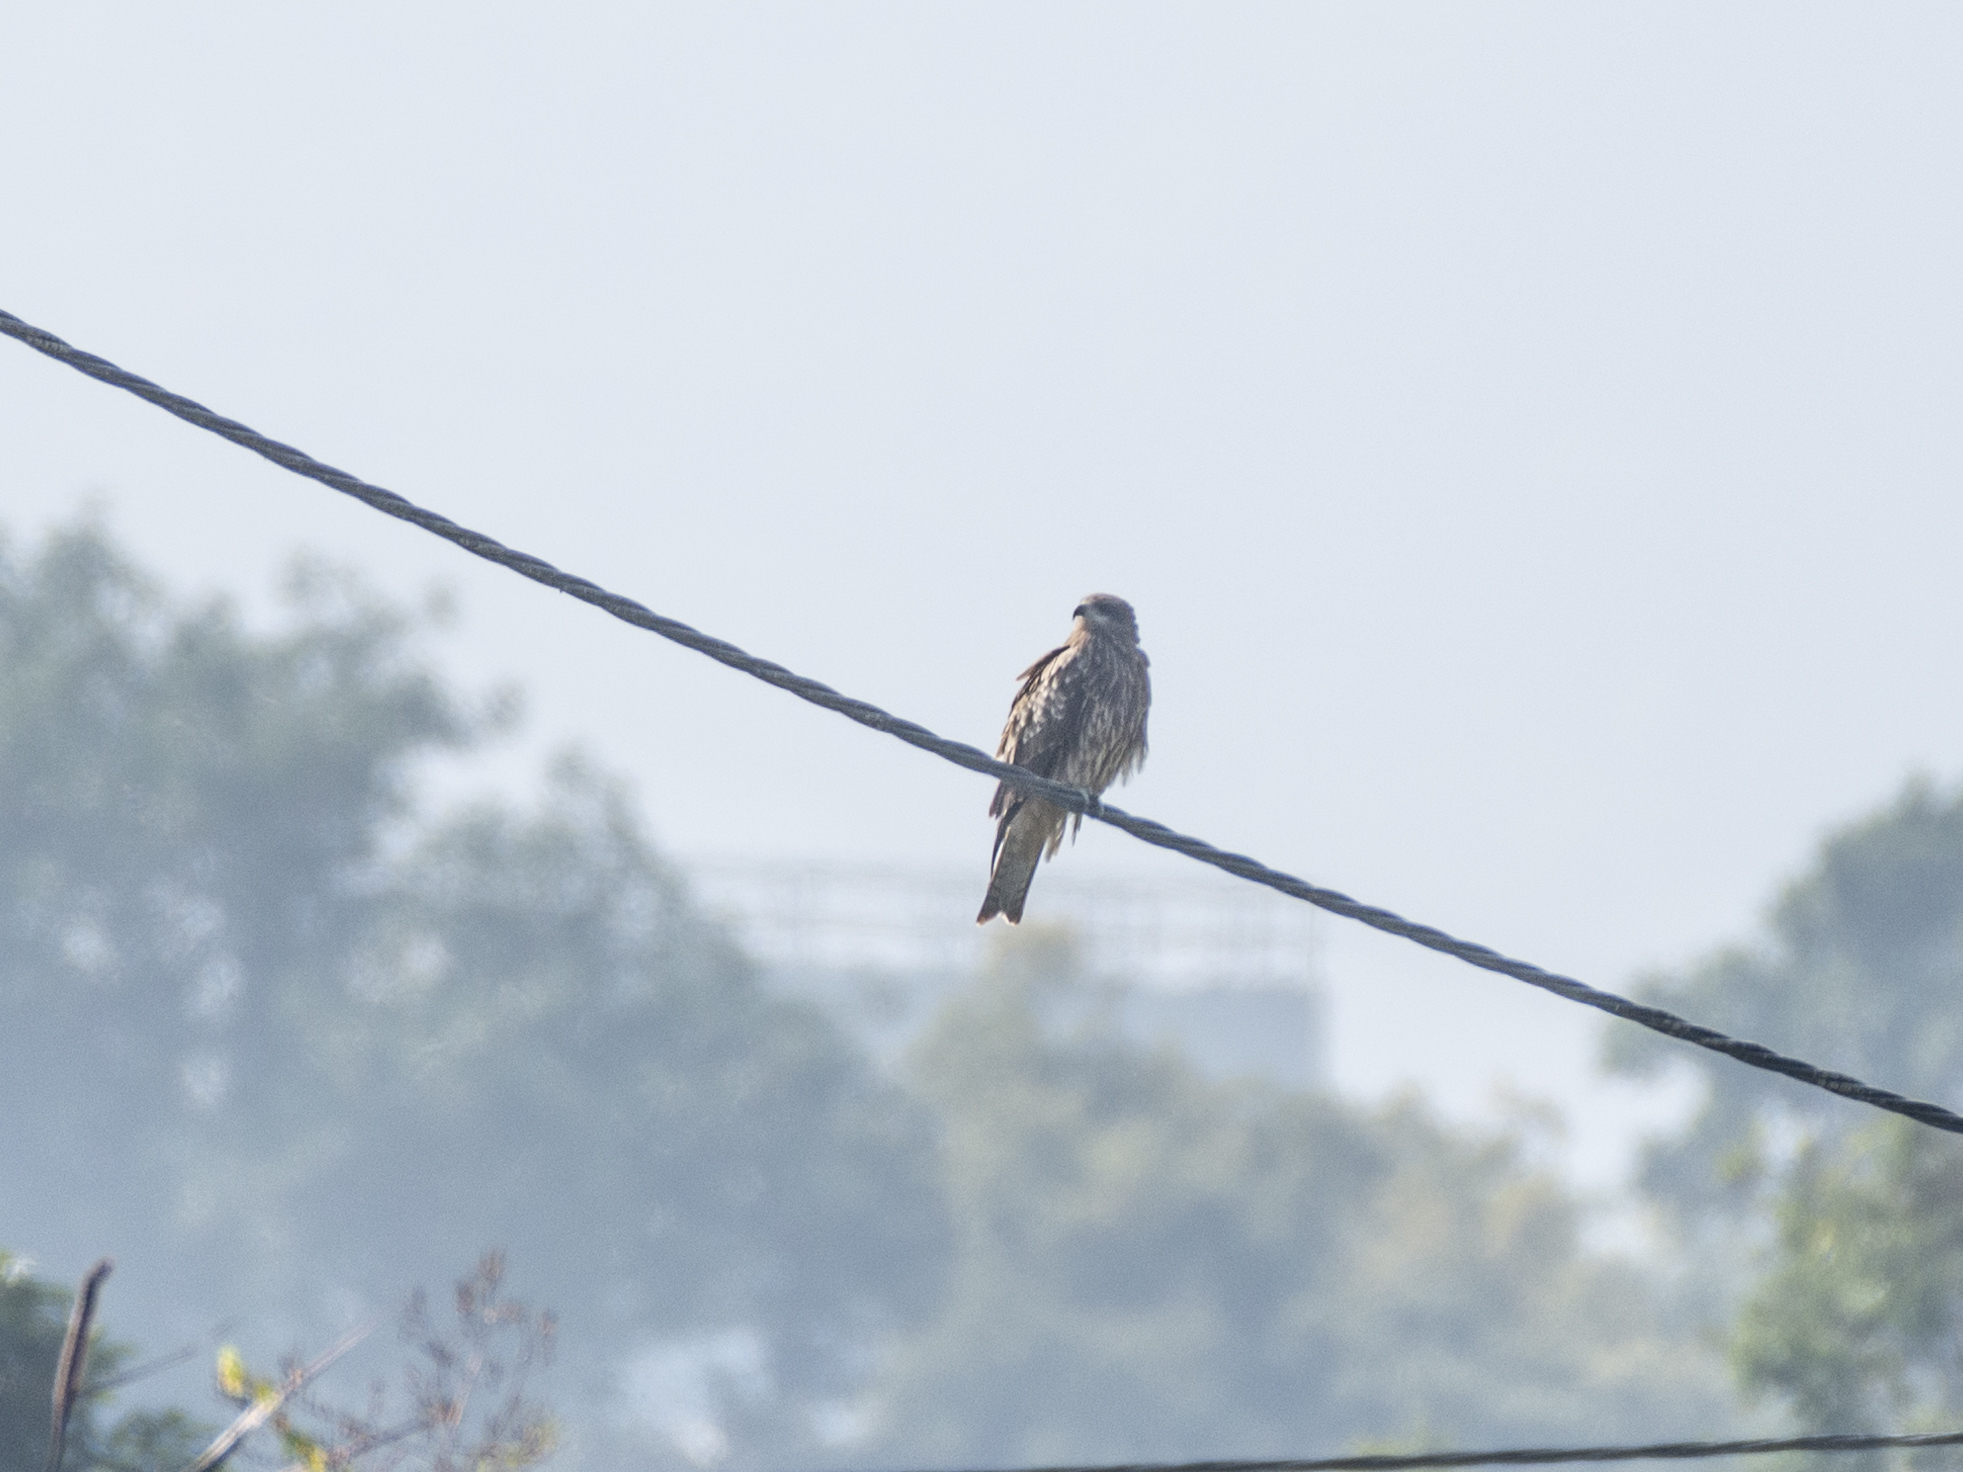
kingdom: Animalia
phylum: Chordata
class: Aves
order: Accipitriformes
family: Accipitridae
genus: Milvus
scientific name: Milvus migrans
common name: Black kite
